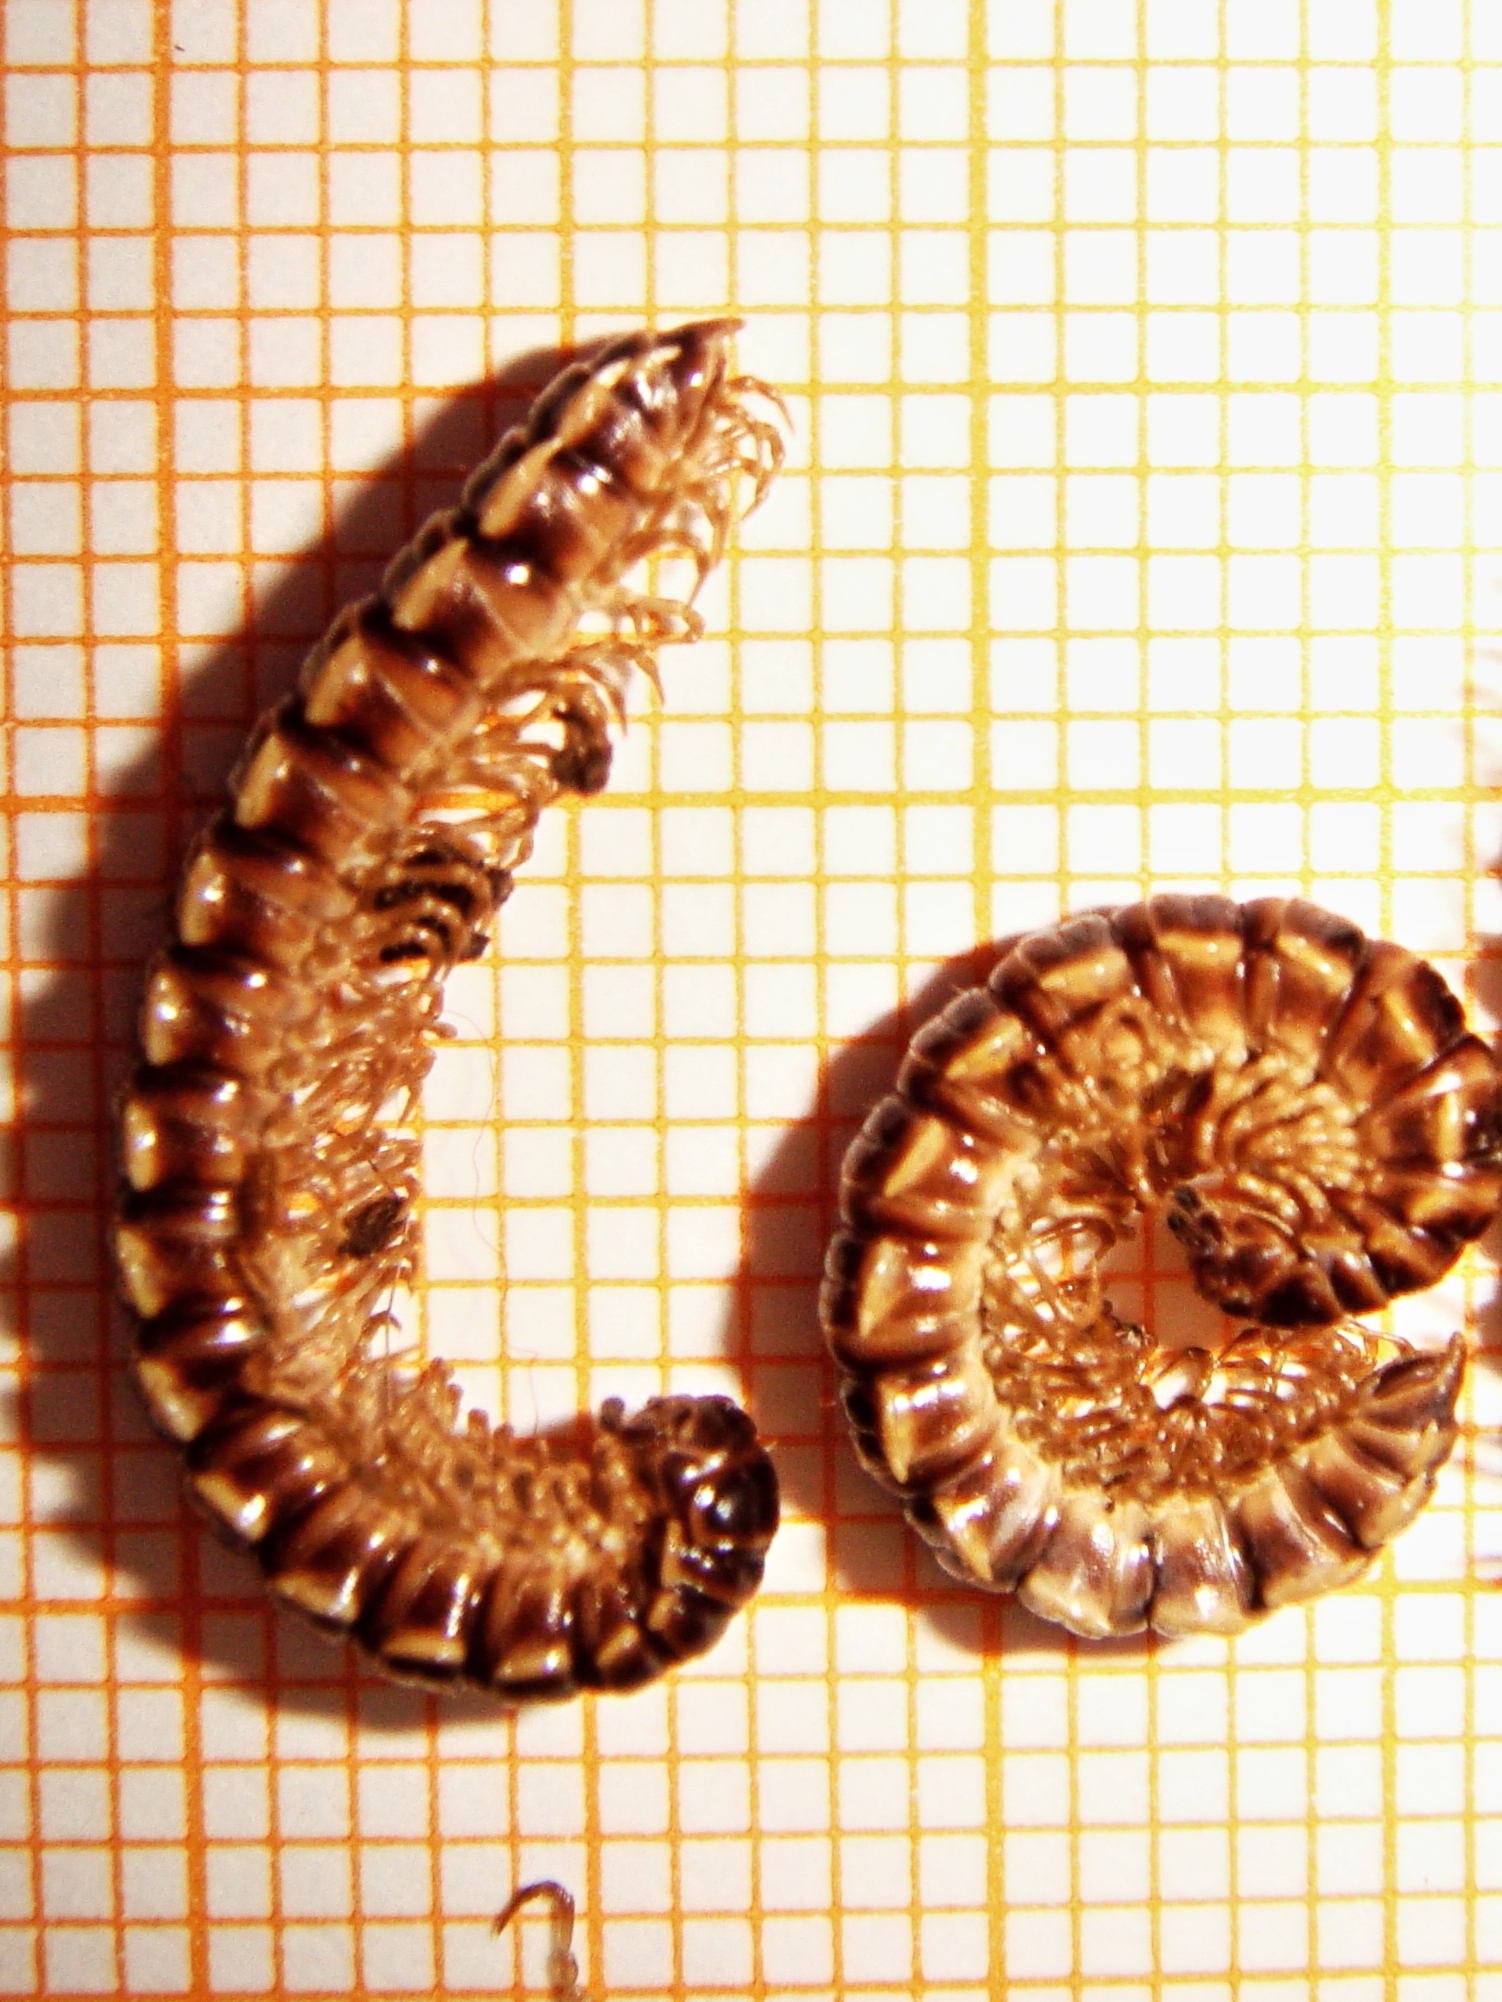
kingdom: Animalia
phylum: Arthropoda
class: Diplopoda
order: Polydesmida
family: Paradoxosomatidae
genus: Oxidus
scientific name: Oxidus gracilis
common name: Greenhouse millipede
